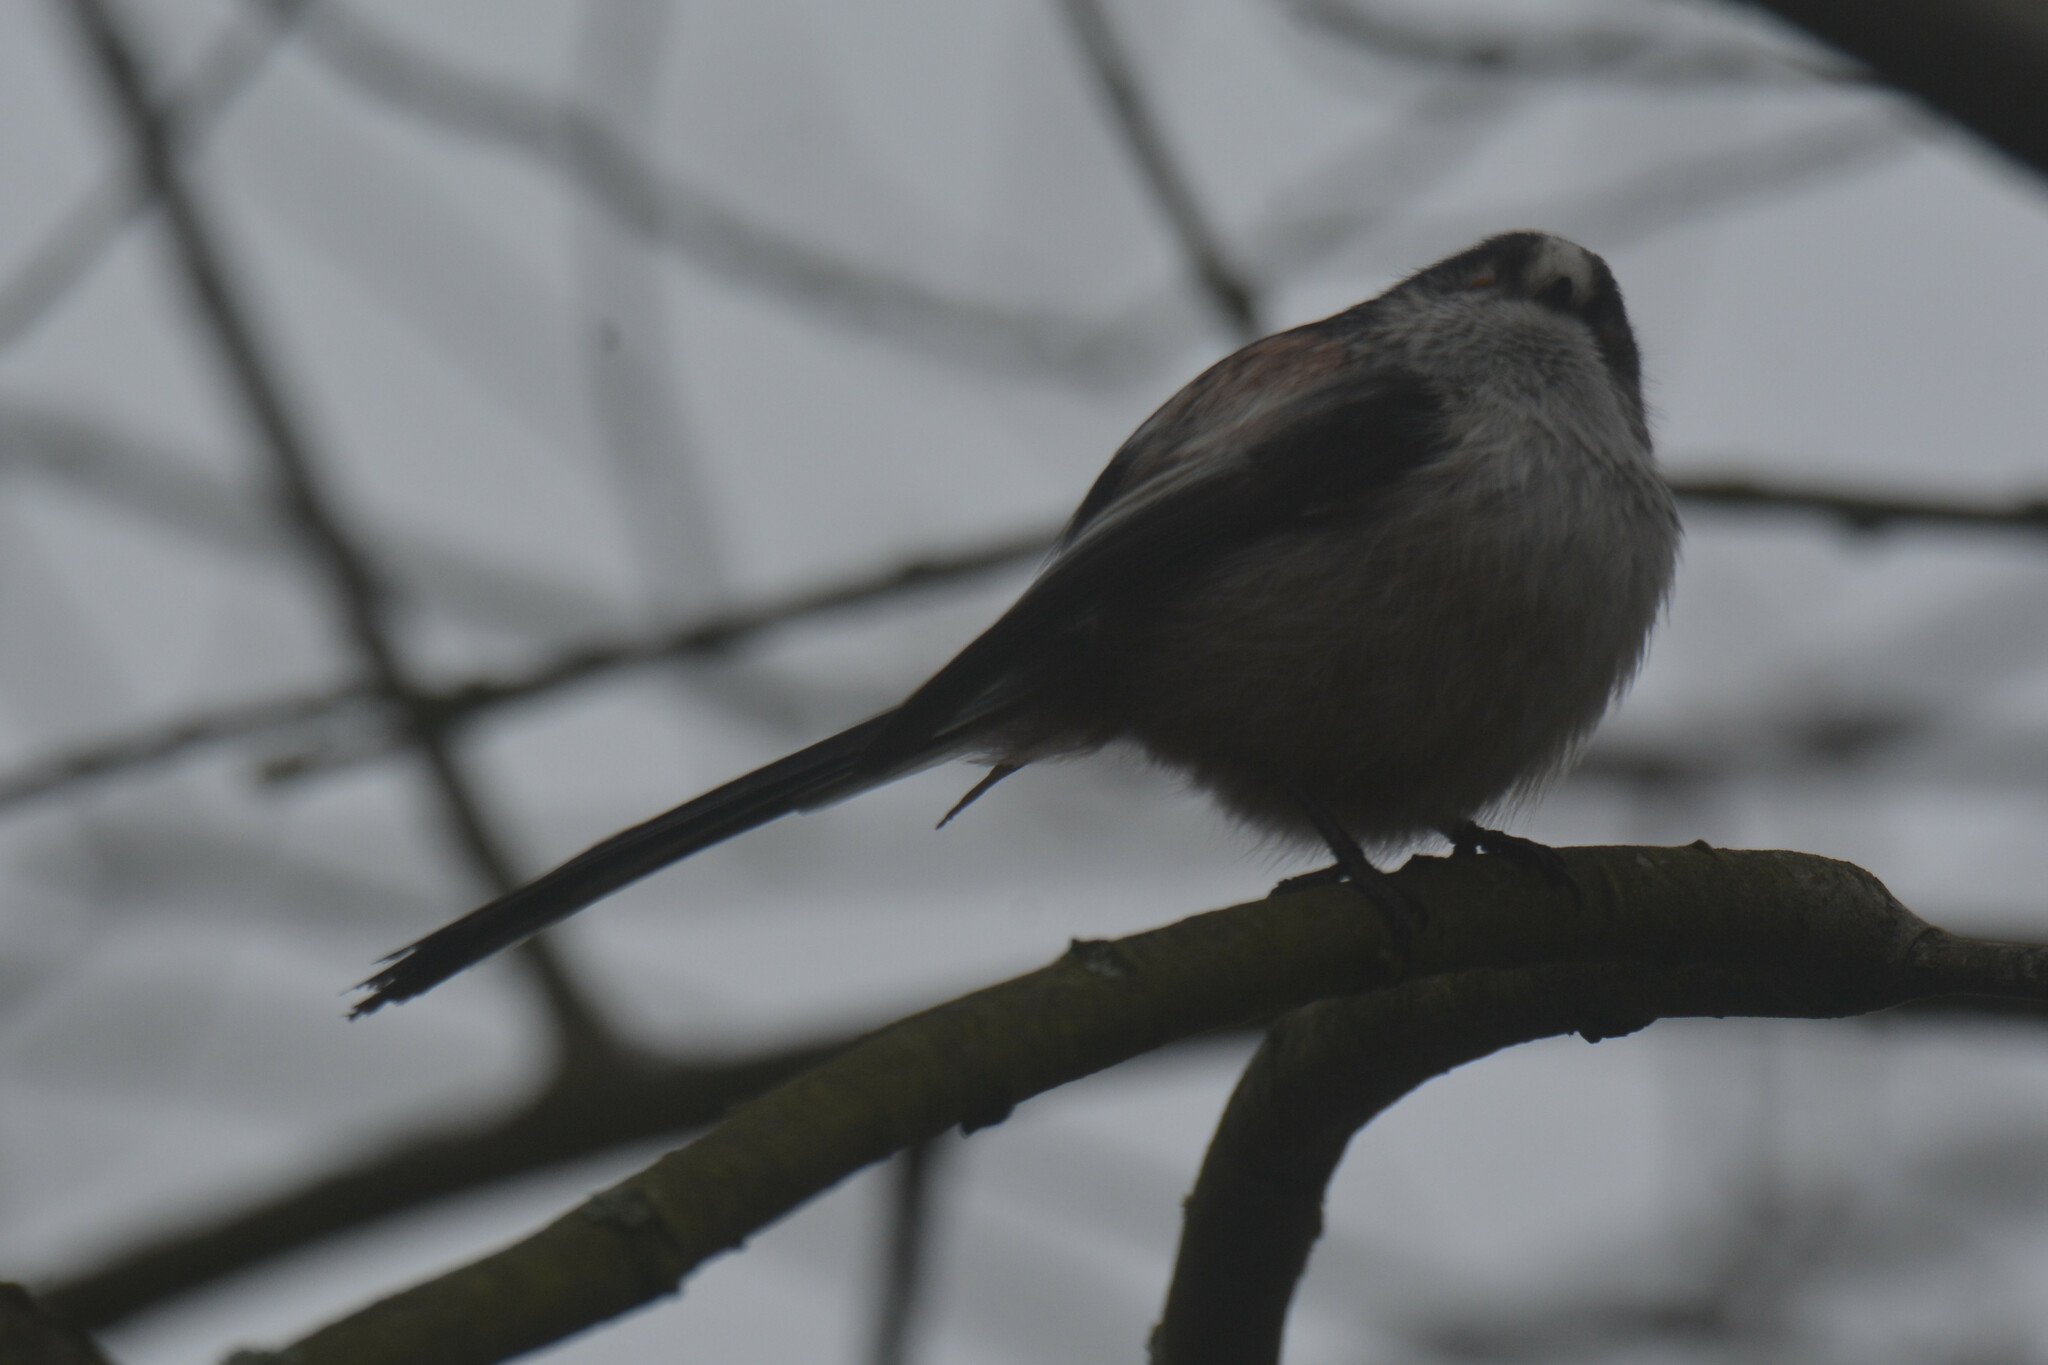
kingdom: Animalia
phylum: Chordata
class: Aves
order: Passeriformes
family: Aegithalidae
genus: Aegithalos
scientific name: Aegithalos caudatus
